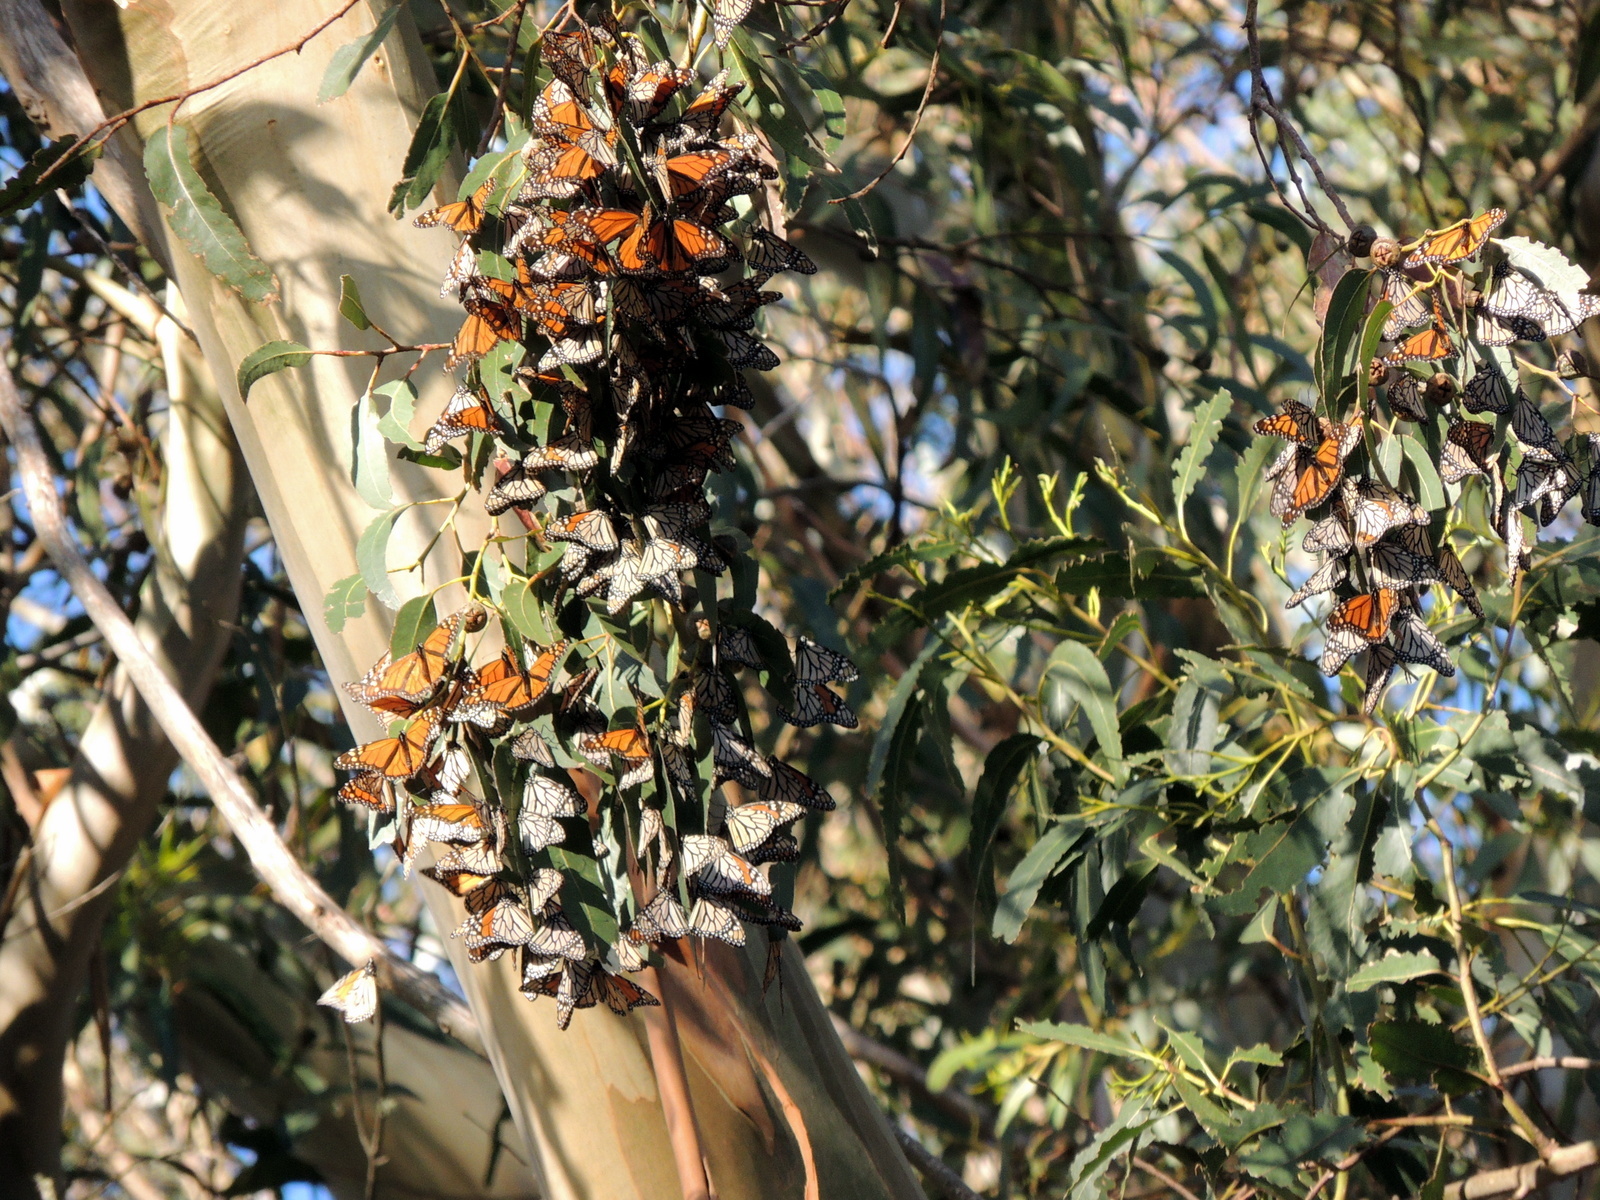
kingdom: Animalia
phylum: Arthropoda
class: Insecta
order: Lepidoptera
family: Nymphalidae
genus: Danaus
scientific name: Danaus plexippus
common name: Monarch
